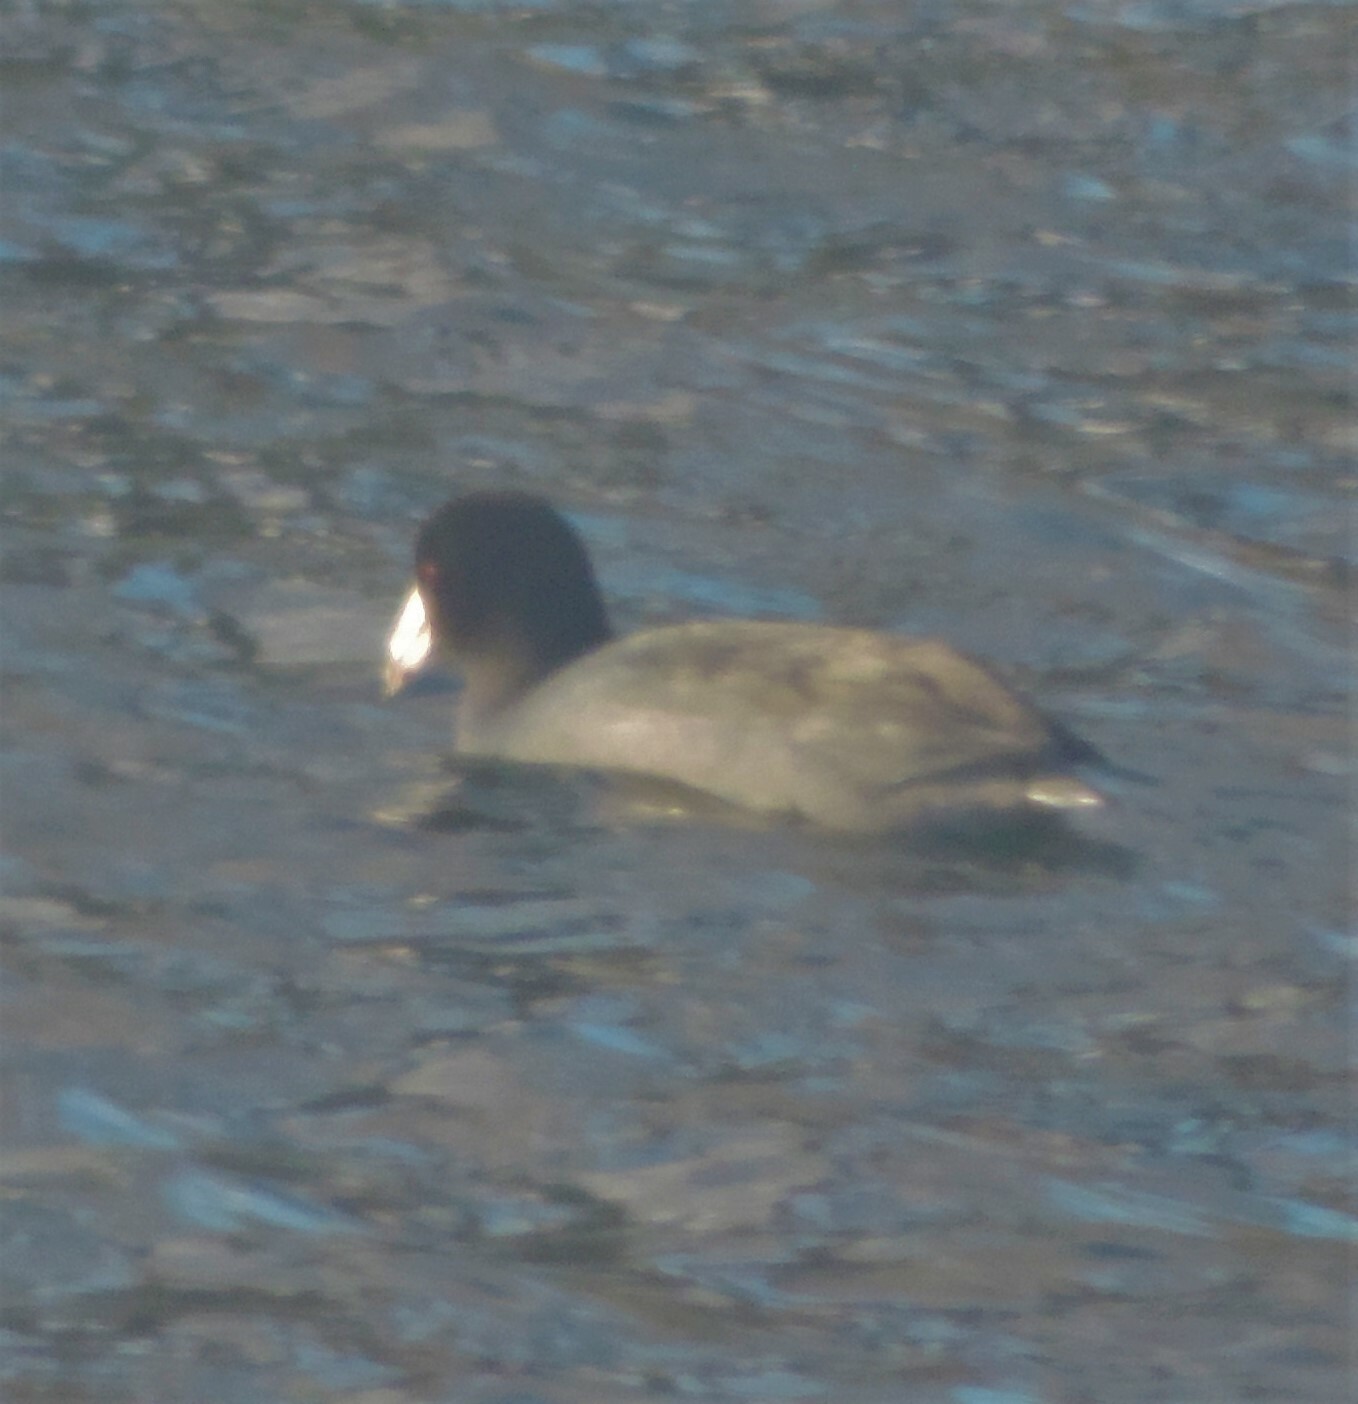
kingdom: Animalia
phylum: Chordata
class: Aves
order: Gruiformes
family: Rallidae
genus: Fulica
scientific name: Fulica americana
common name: American coot
